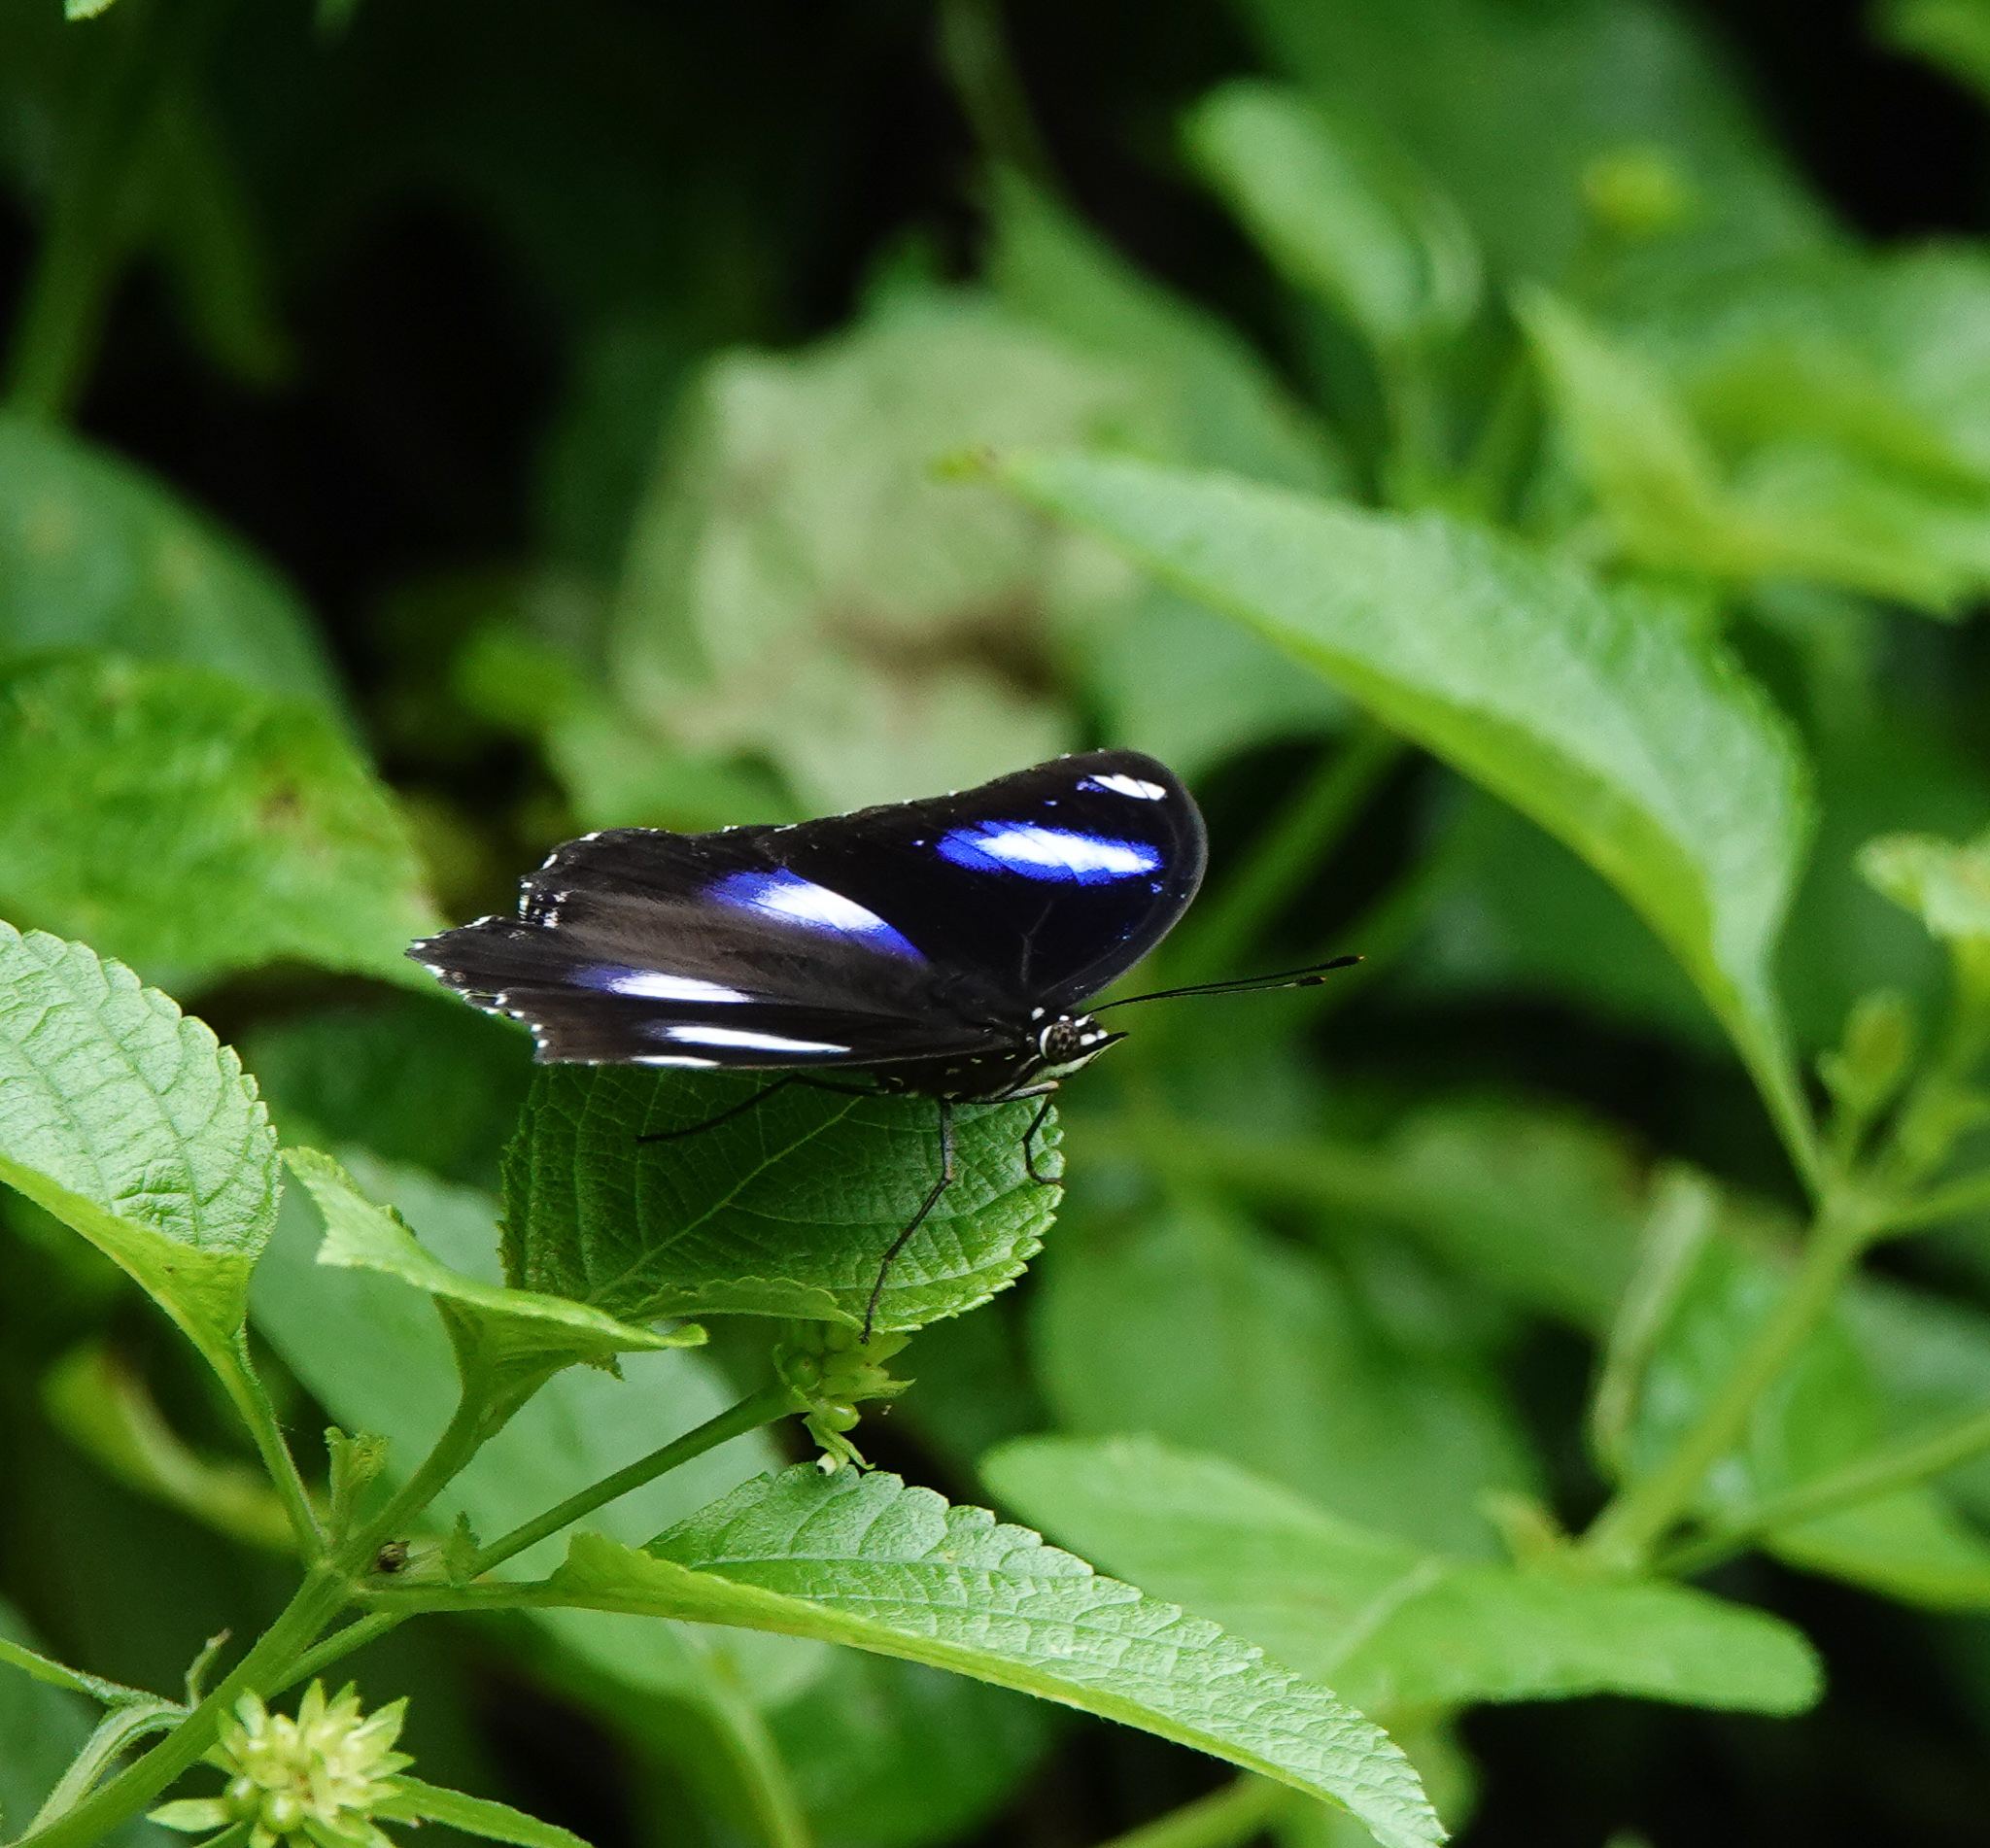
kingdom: Animalia
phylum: Arthropoda
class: Insecta
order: Lepidoptera
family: Nymphalidae
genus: Hypolimnas
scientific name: Hypolimnas bolina
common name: Great eggfly
